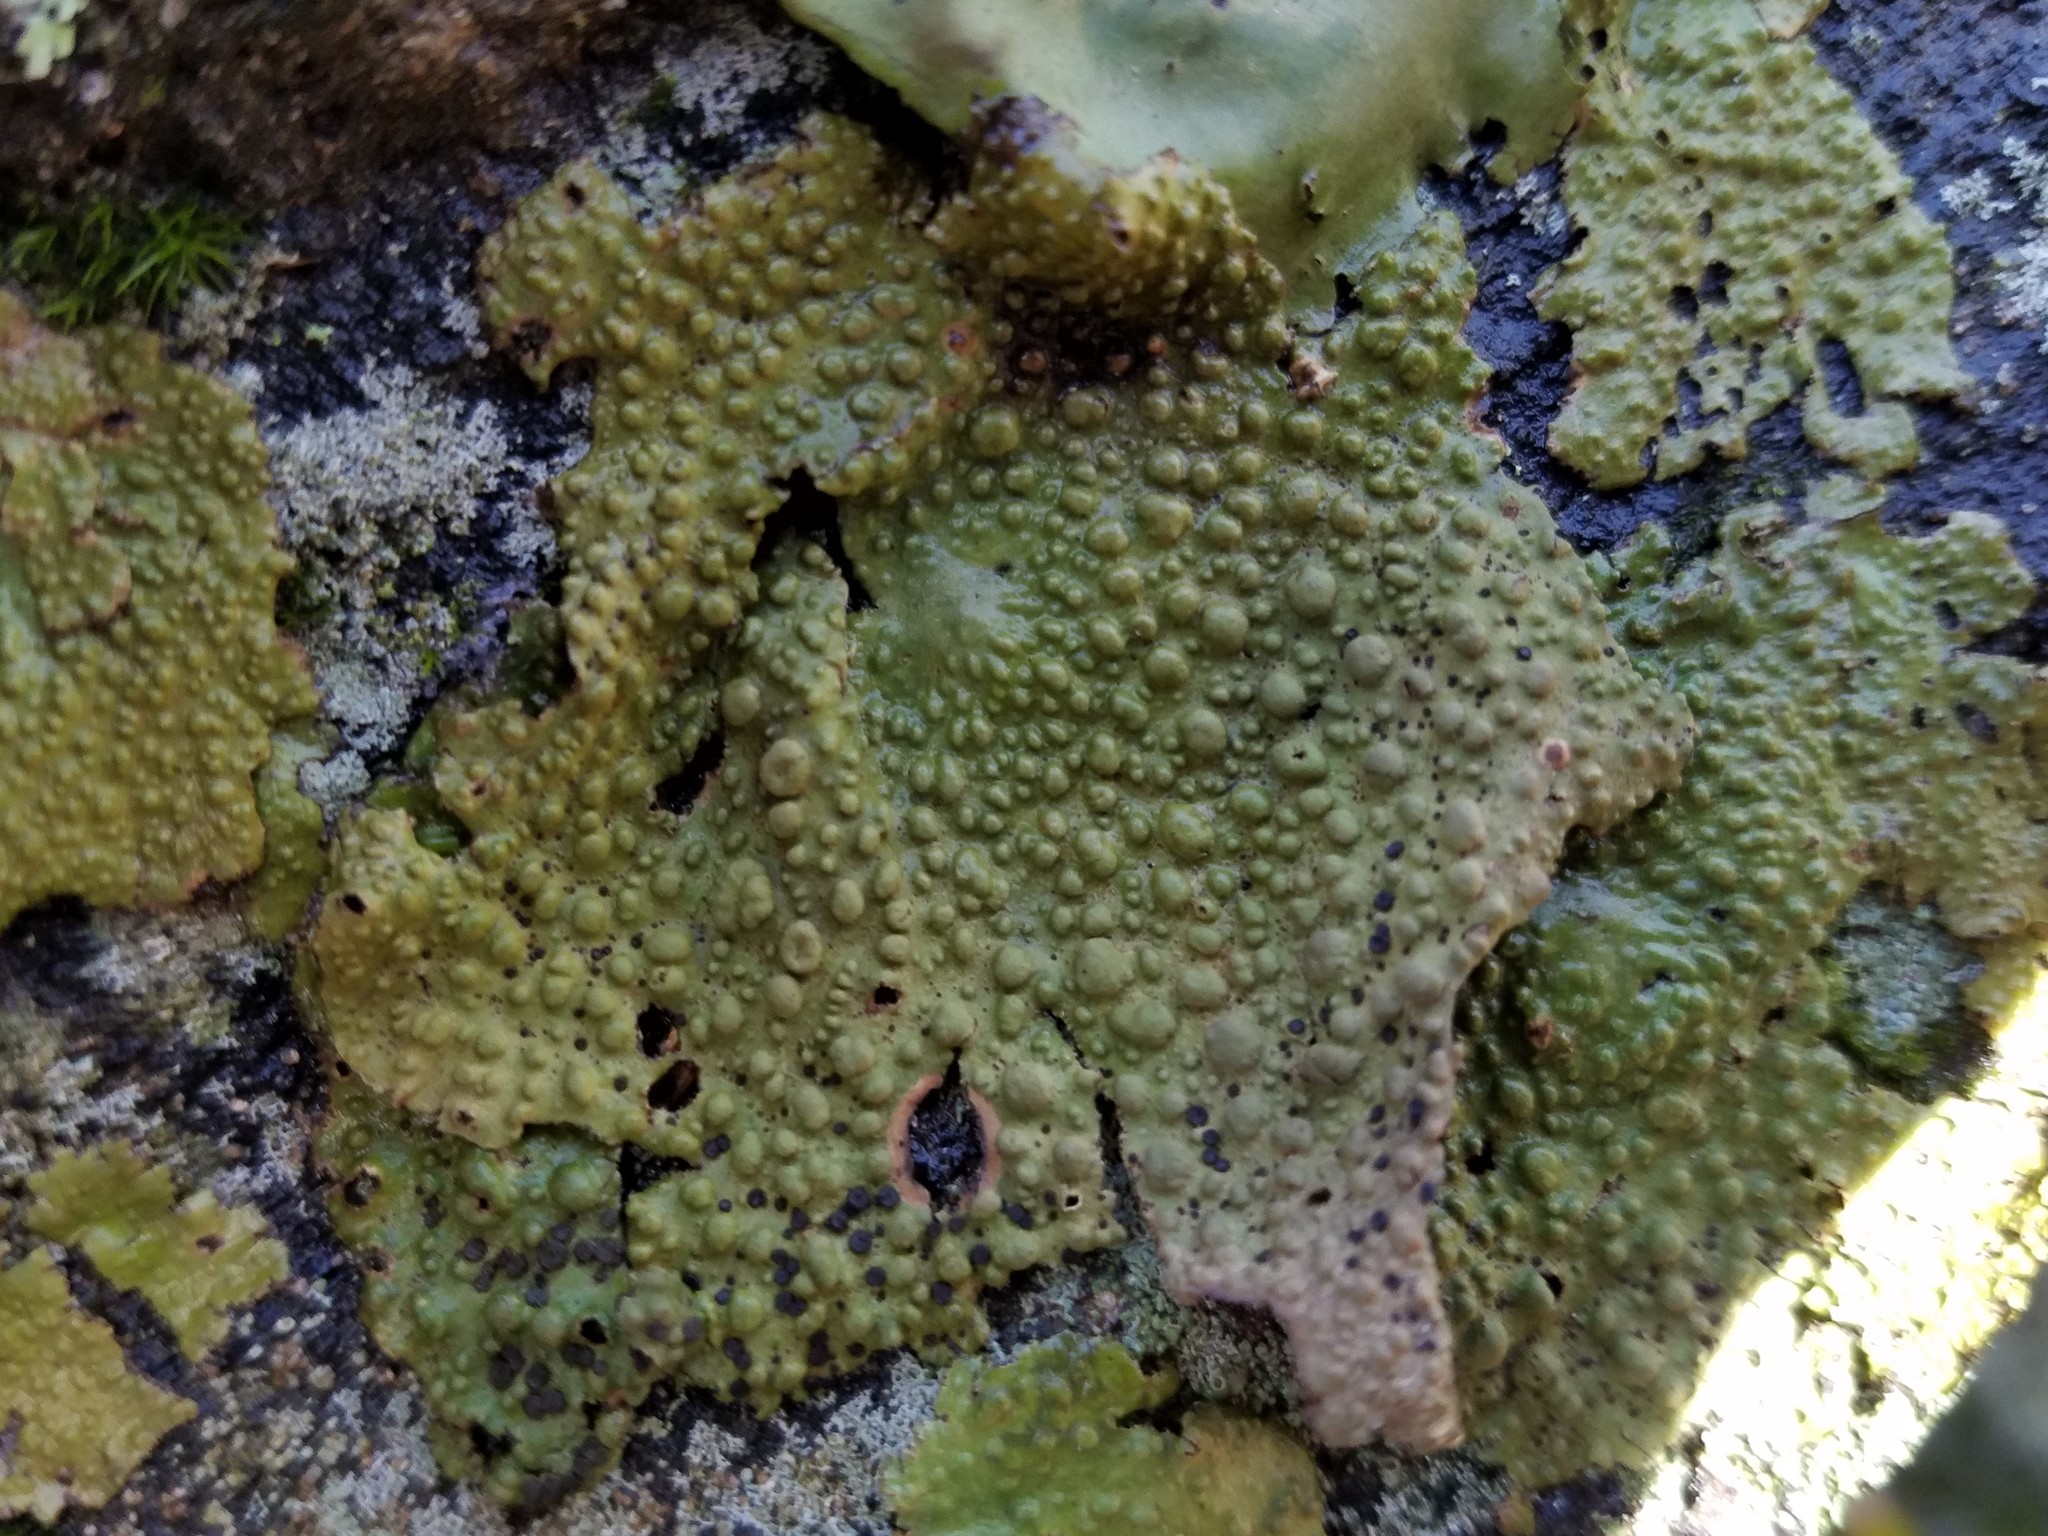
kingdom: Fungi
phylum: Ascomycota
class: Lecanoromycetes
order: Umbilicariales
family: Umbilicariaceae
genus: Lasallia
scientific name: Lasallia papulosa
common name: Common toadskin lichen
